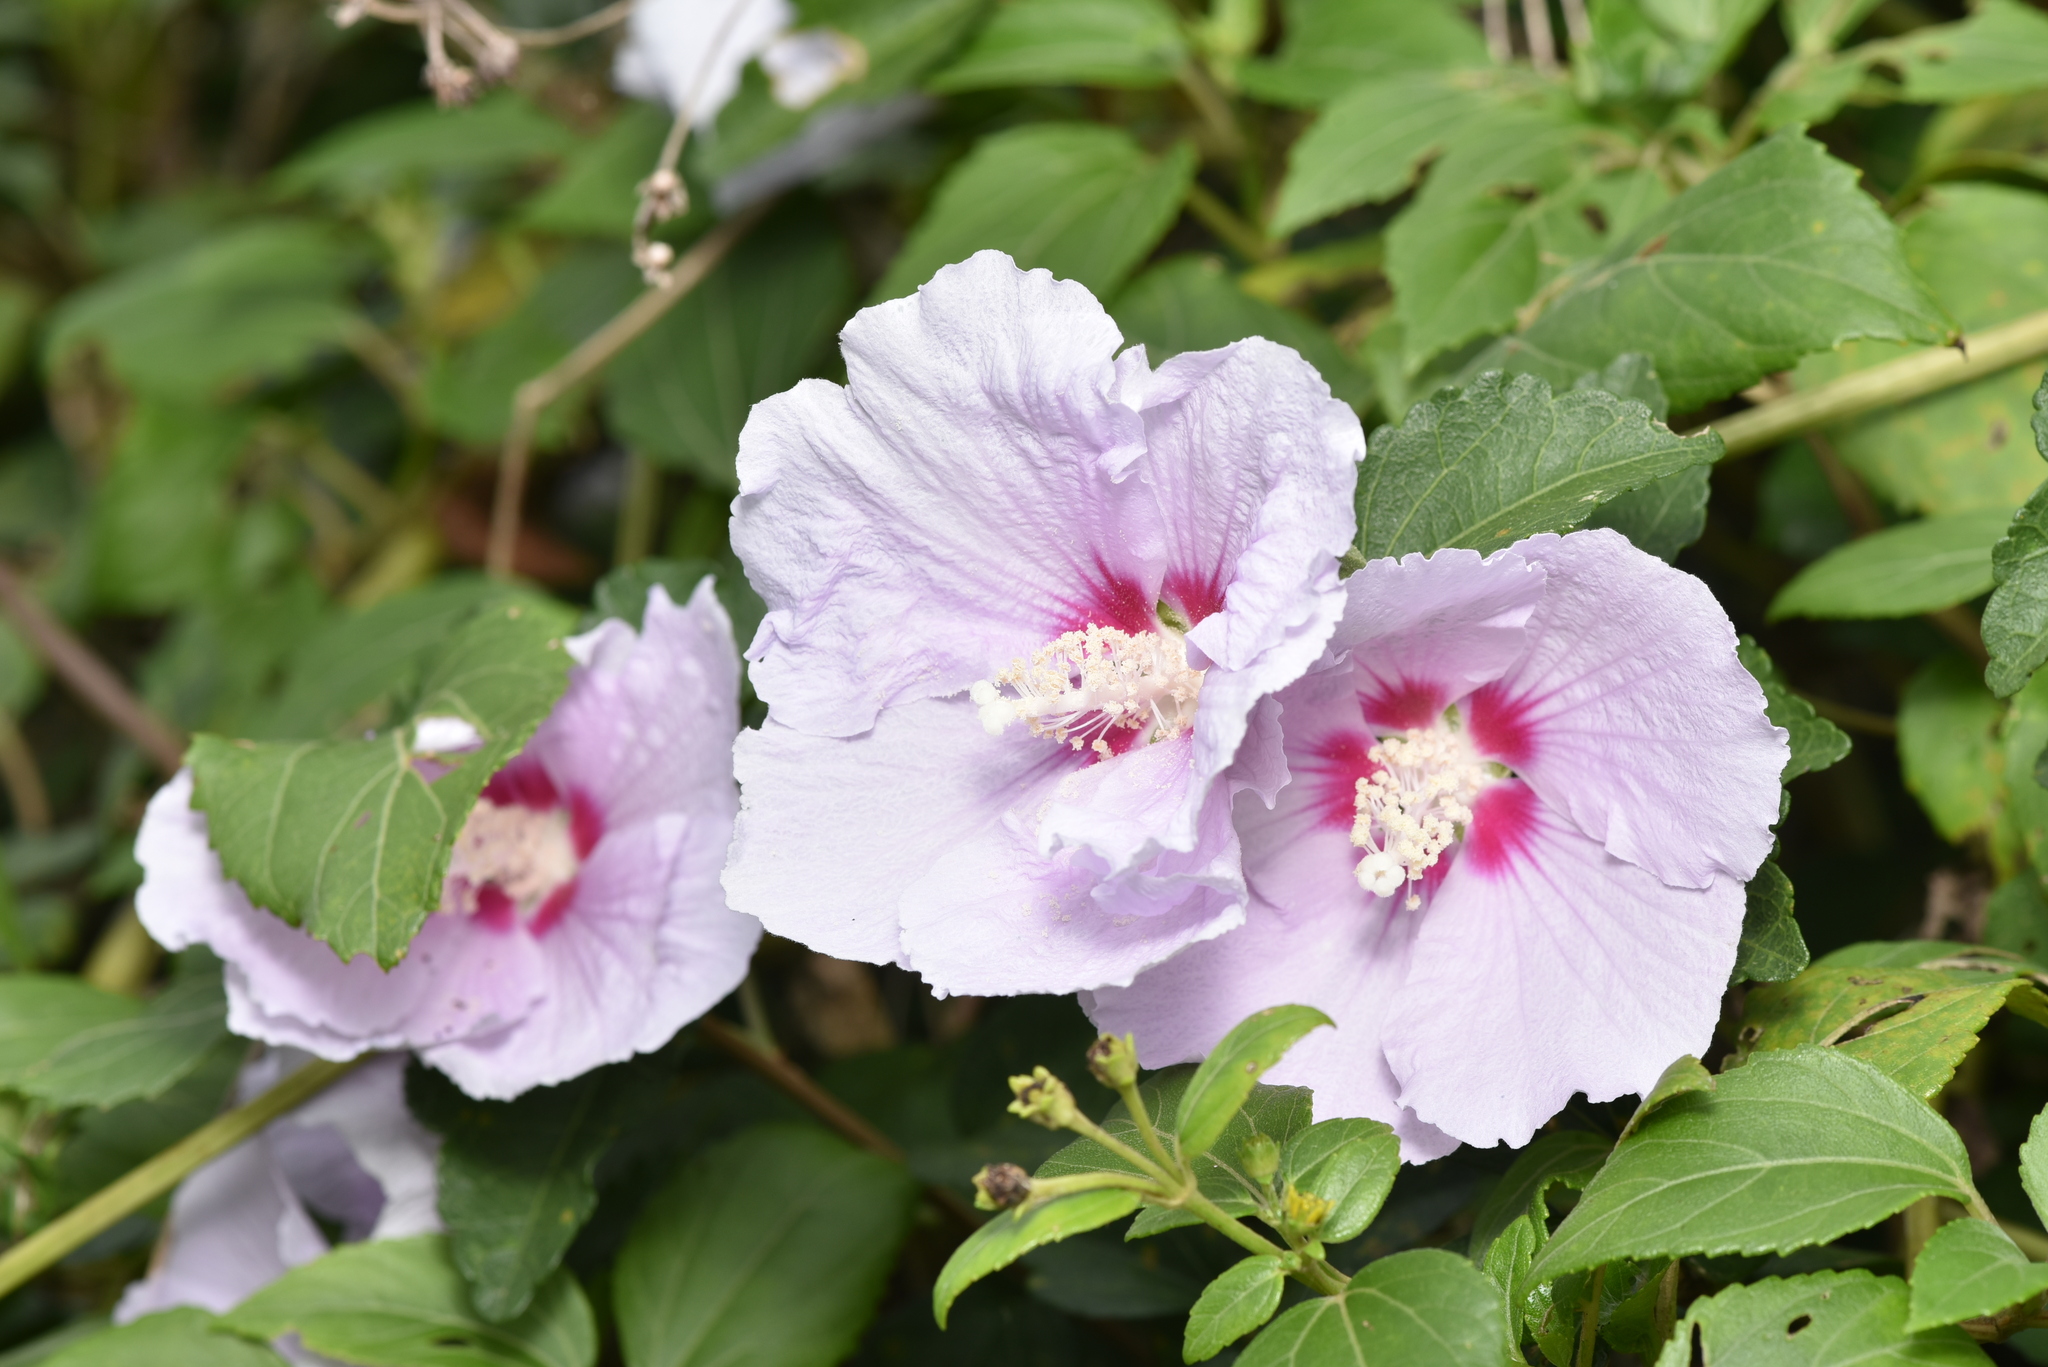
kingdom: Plantae
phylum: Tracheophyta
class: Magnoliopsida
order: Malvales
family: Malvaceae
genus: Hibiscus
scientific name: Hibiscus syriacus
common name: Syrian ketmia
